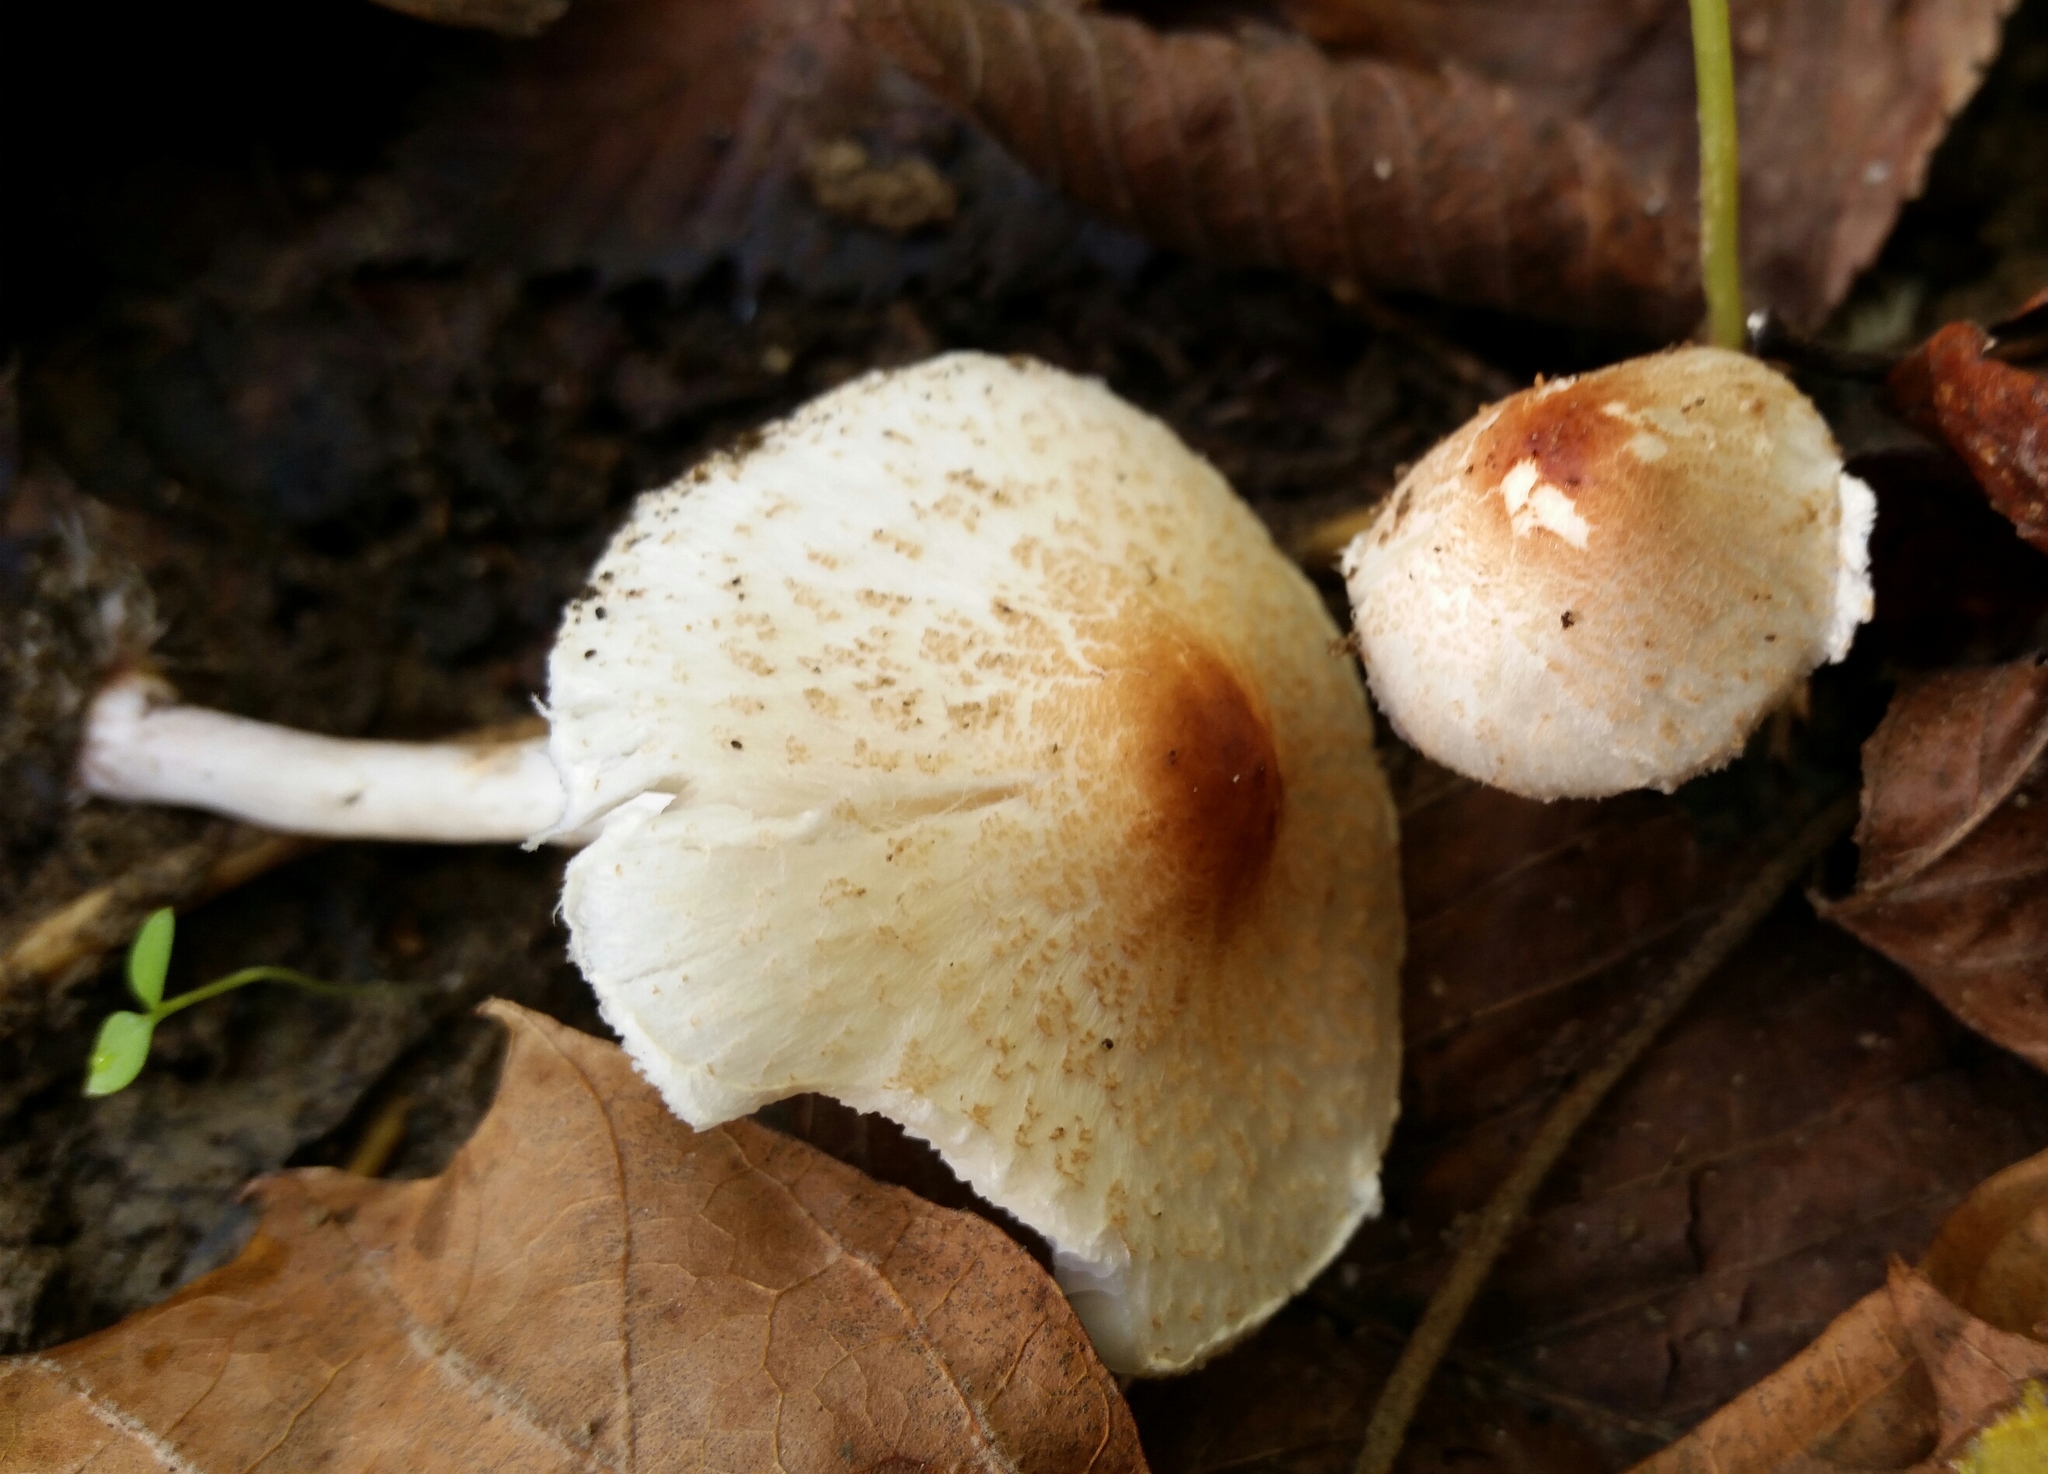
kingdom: Fungi
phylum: Basidiomycota
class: Agaricomycetes
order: Agaricales
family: Agaricaceae
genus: Lepiota
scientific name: Lepiota cristata
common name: Stinking dapperling
